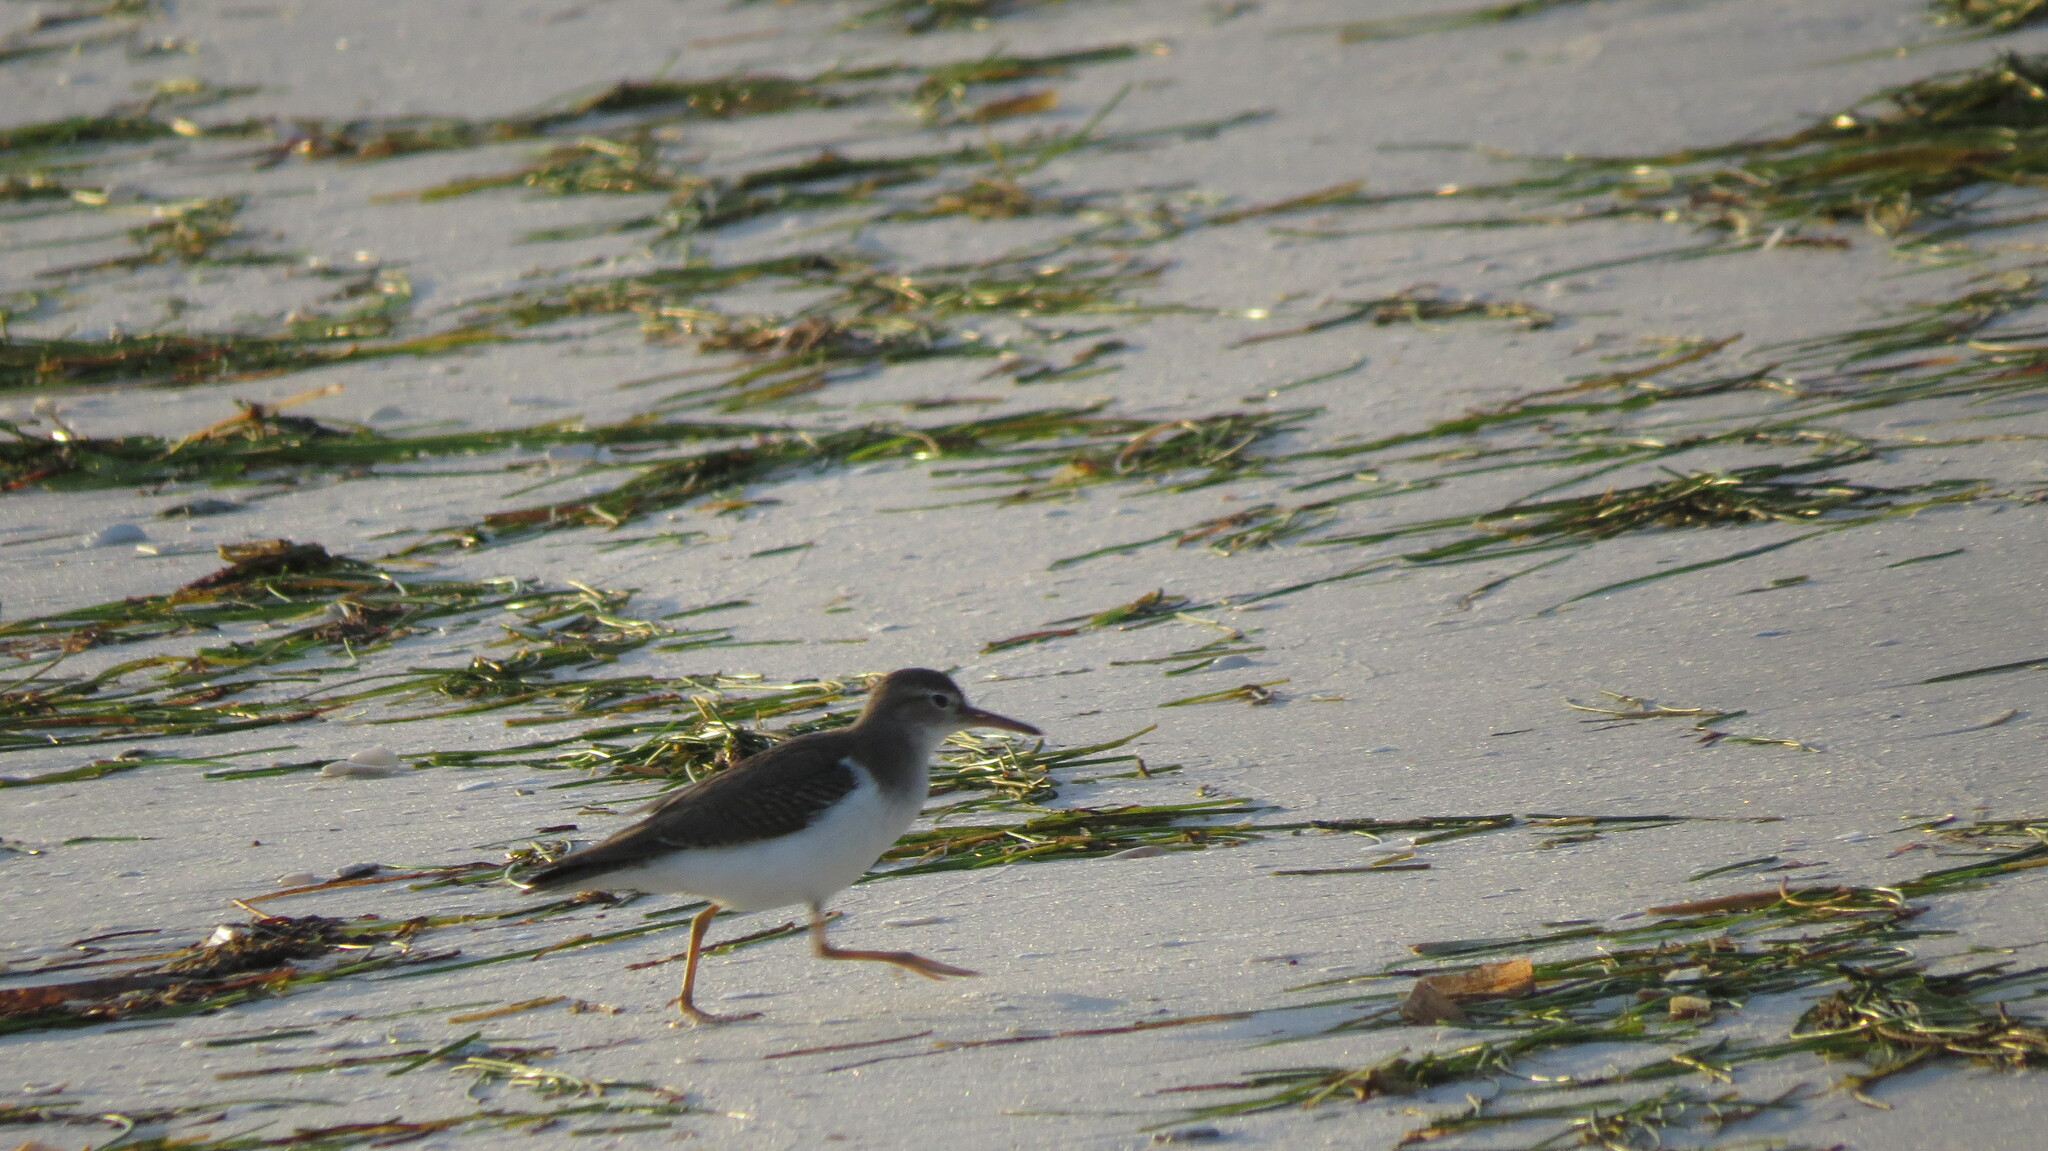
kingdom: Animalia
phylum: Chordata
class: Aves
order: Charadriiformes
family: Scolopacidae
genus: Actitis
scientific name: Actitis macularius
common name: Spotted sandpiper
